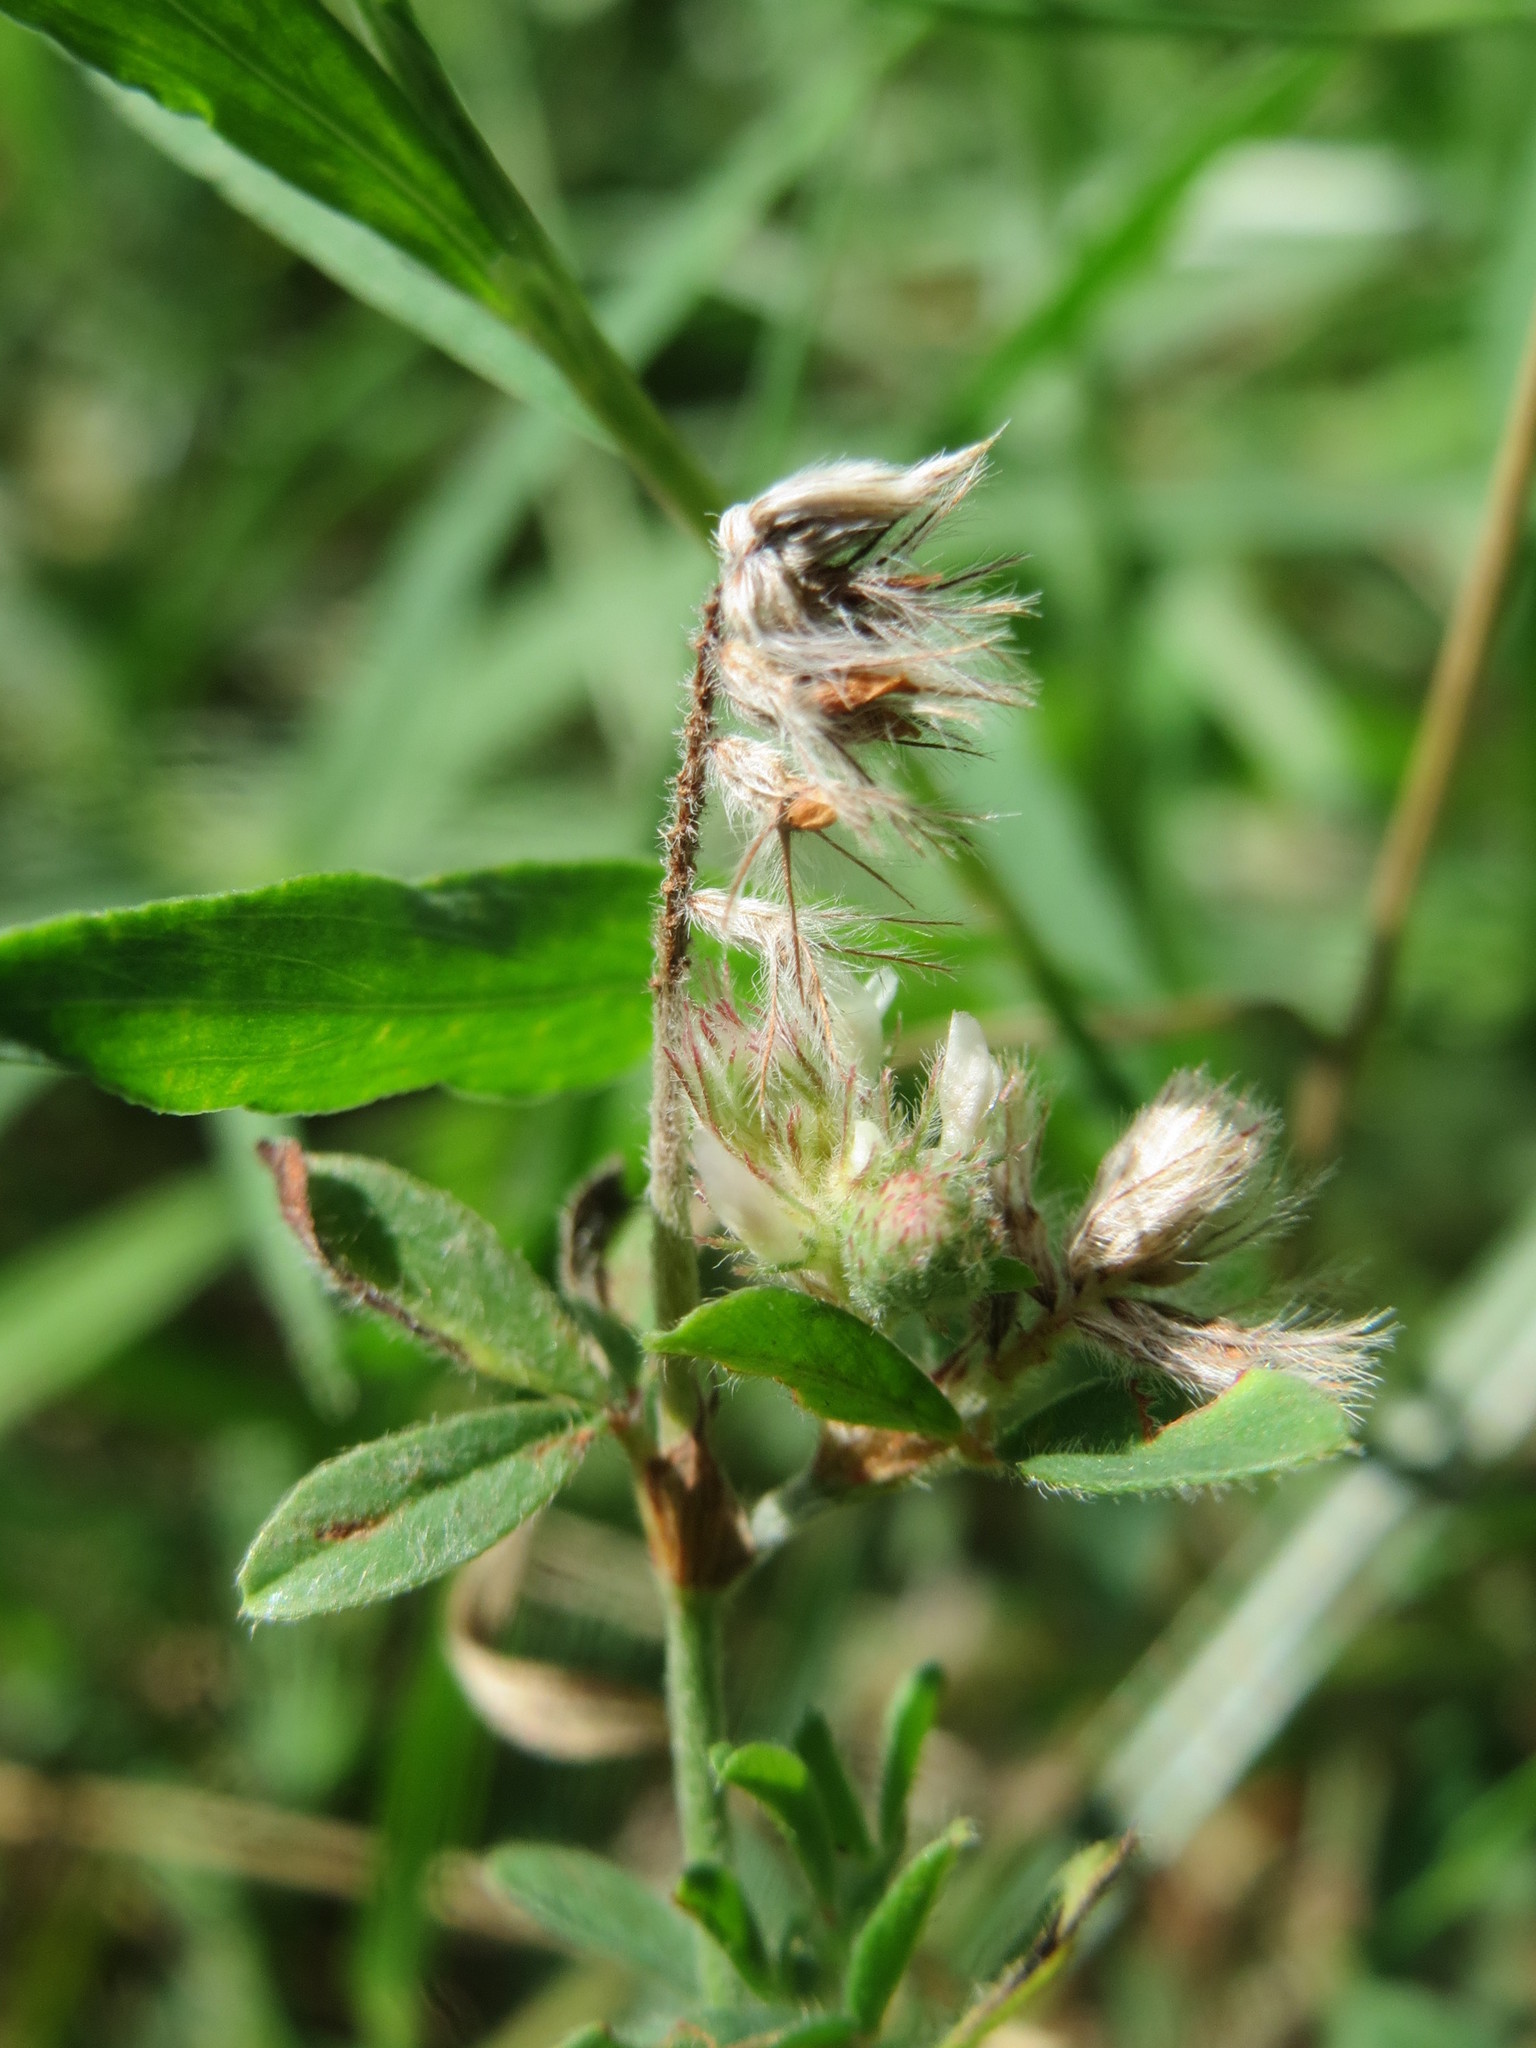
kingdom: Plantae
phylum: Tracheophyta
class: Magnoliopsida
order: Fabales
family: Fabaceae
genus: Trifolium
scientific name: Trifolium arvense
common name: Hare's-foot clover
